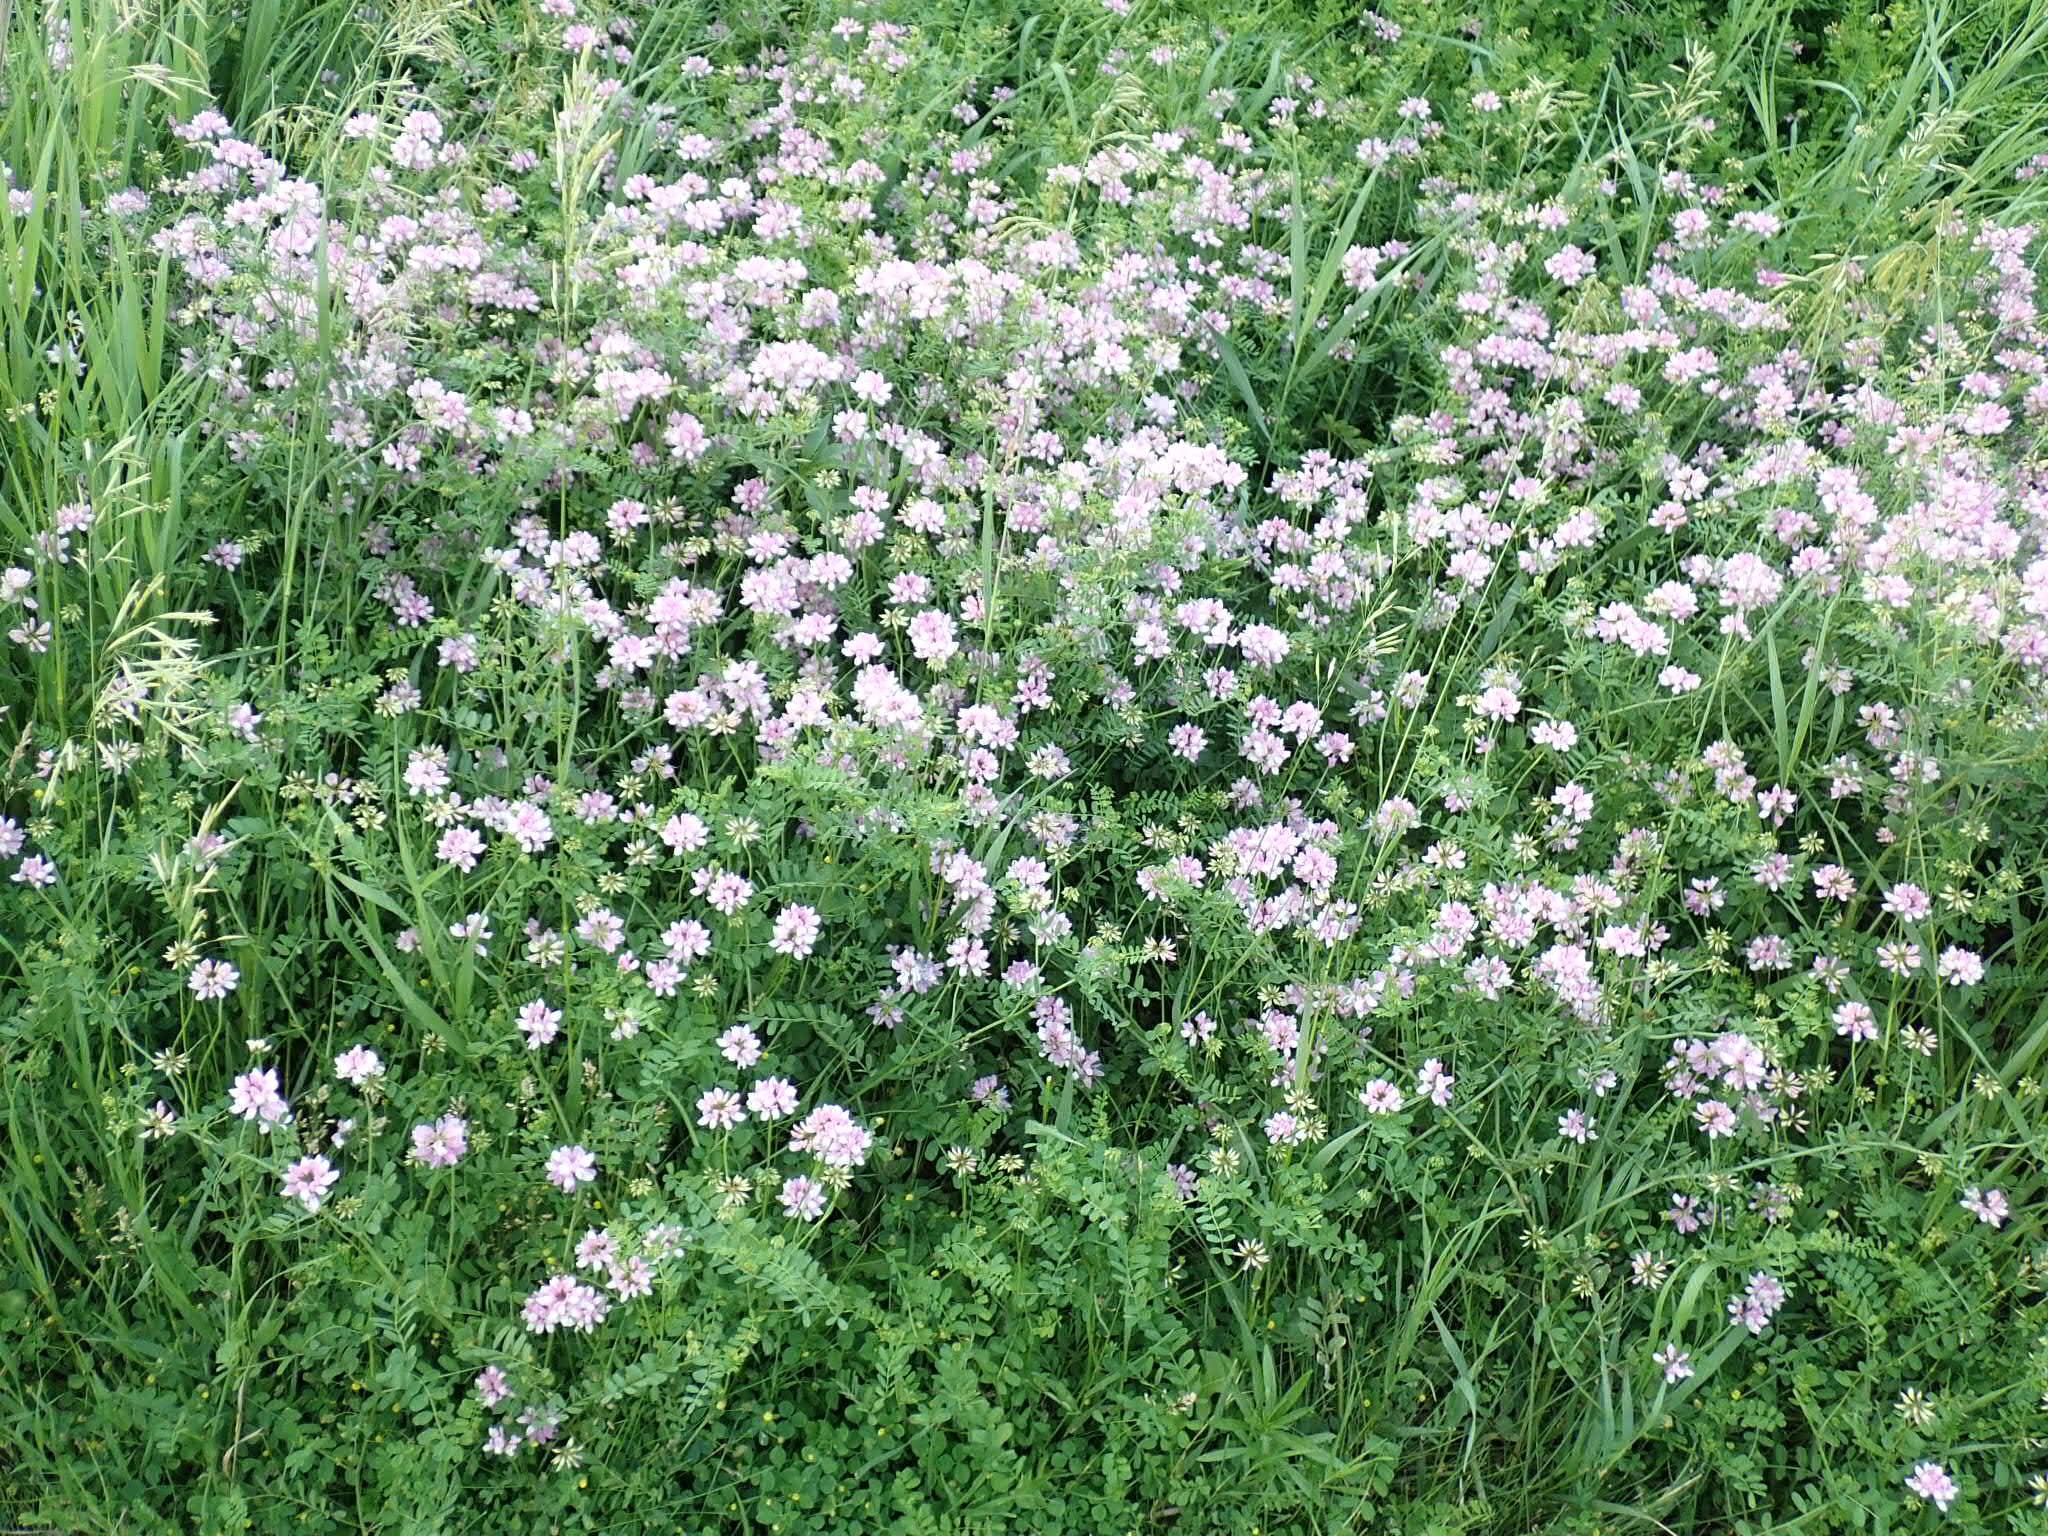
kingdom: Plantae
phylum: Tracheophyta
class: Magnoliopsida
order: Fabales
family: Fabaceae
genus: Coronilla
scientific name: Coronilla varia
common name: Crownvetch
